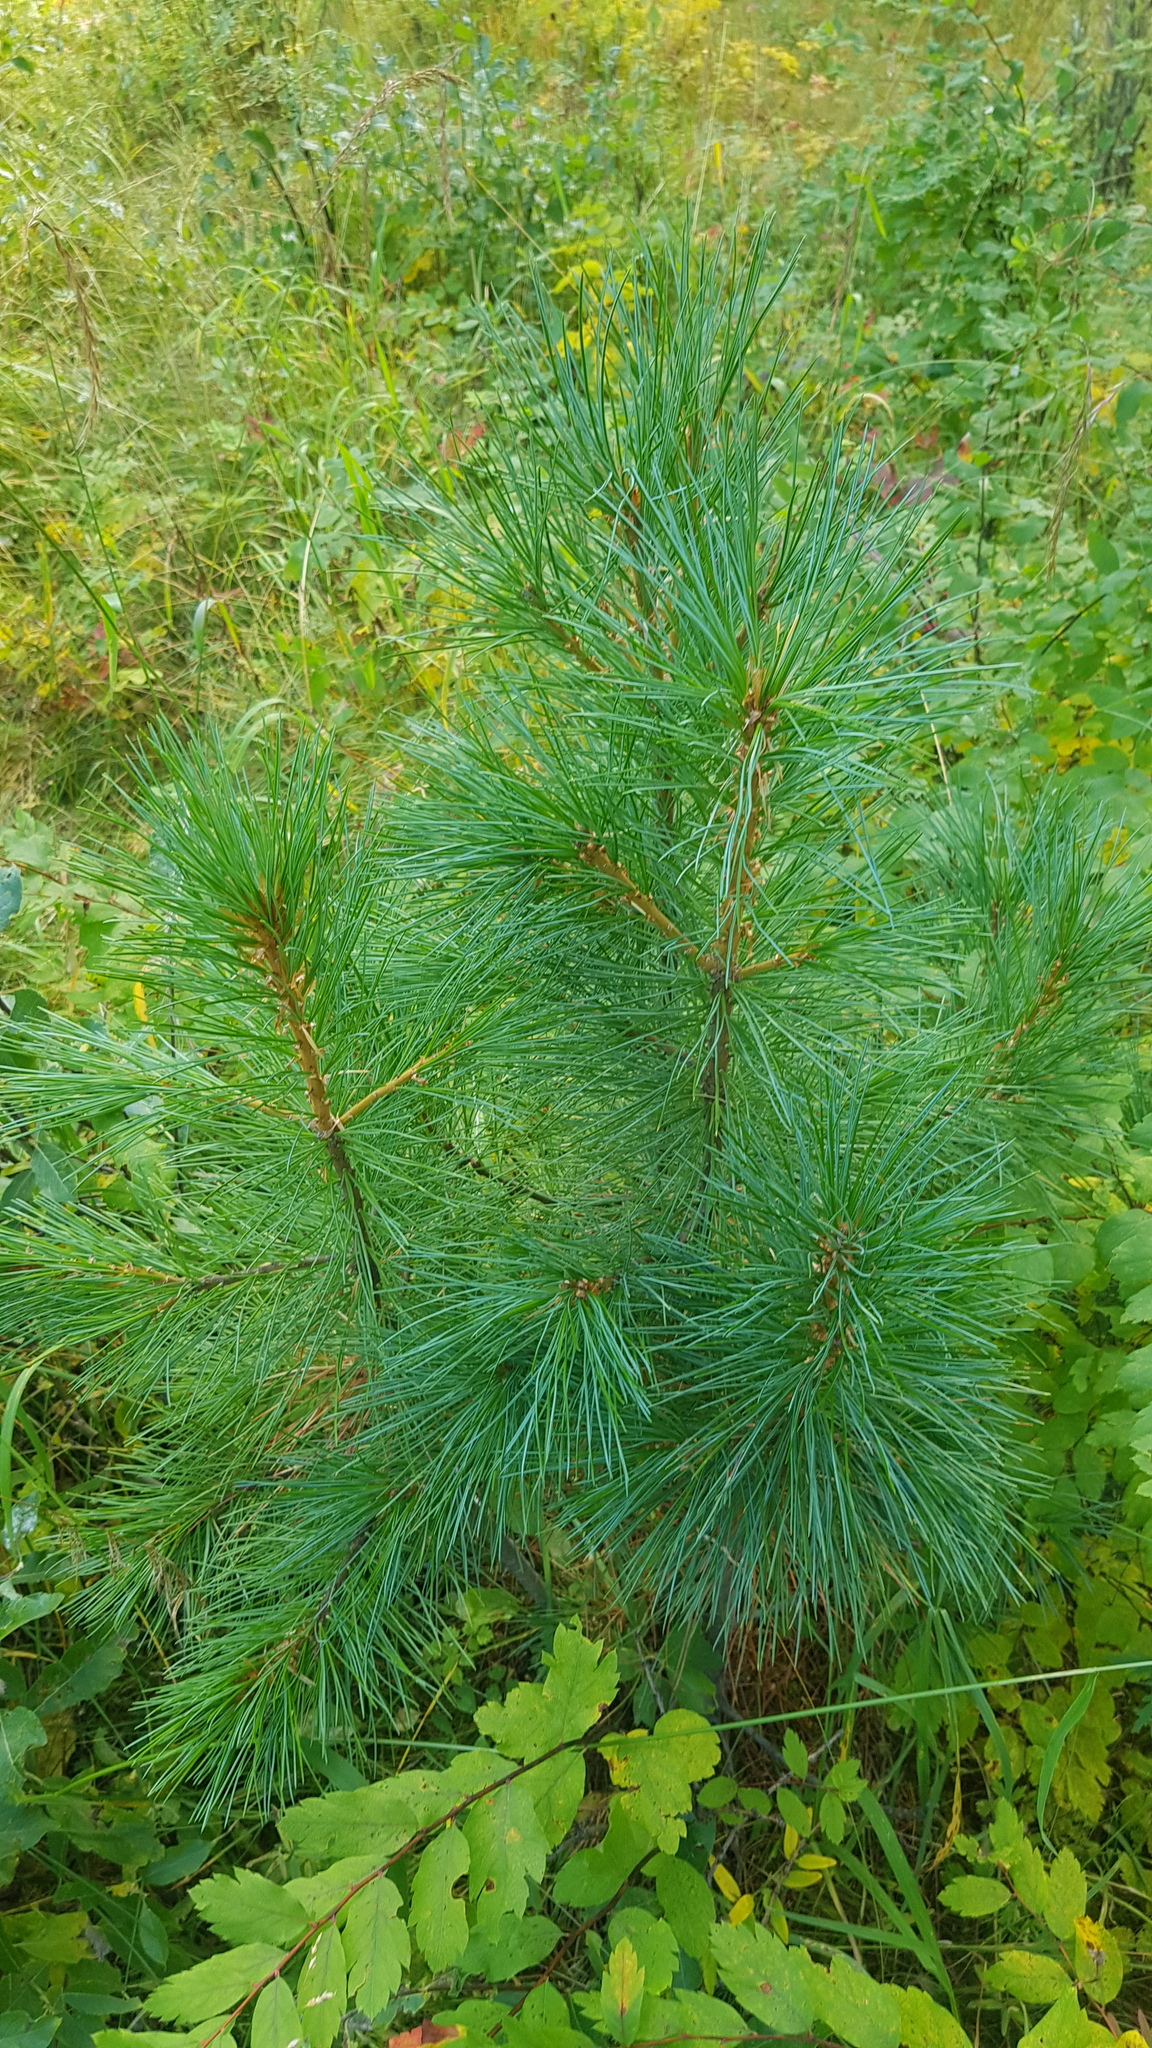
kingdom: Plantae
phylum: Tracheophyta
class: Pinopsida
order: Pinales
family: Pinaceae
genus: Pinus
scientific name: Pinus sibirica
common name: Siberian pine
